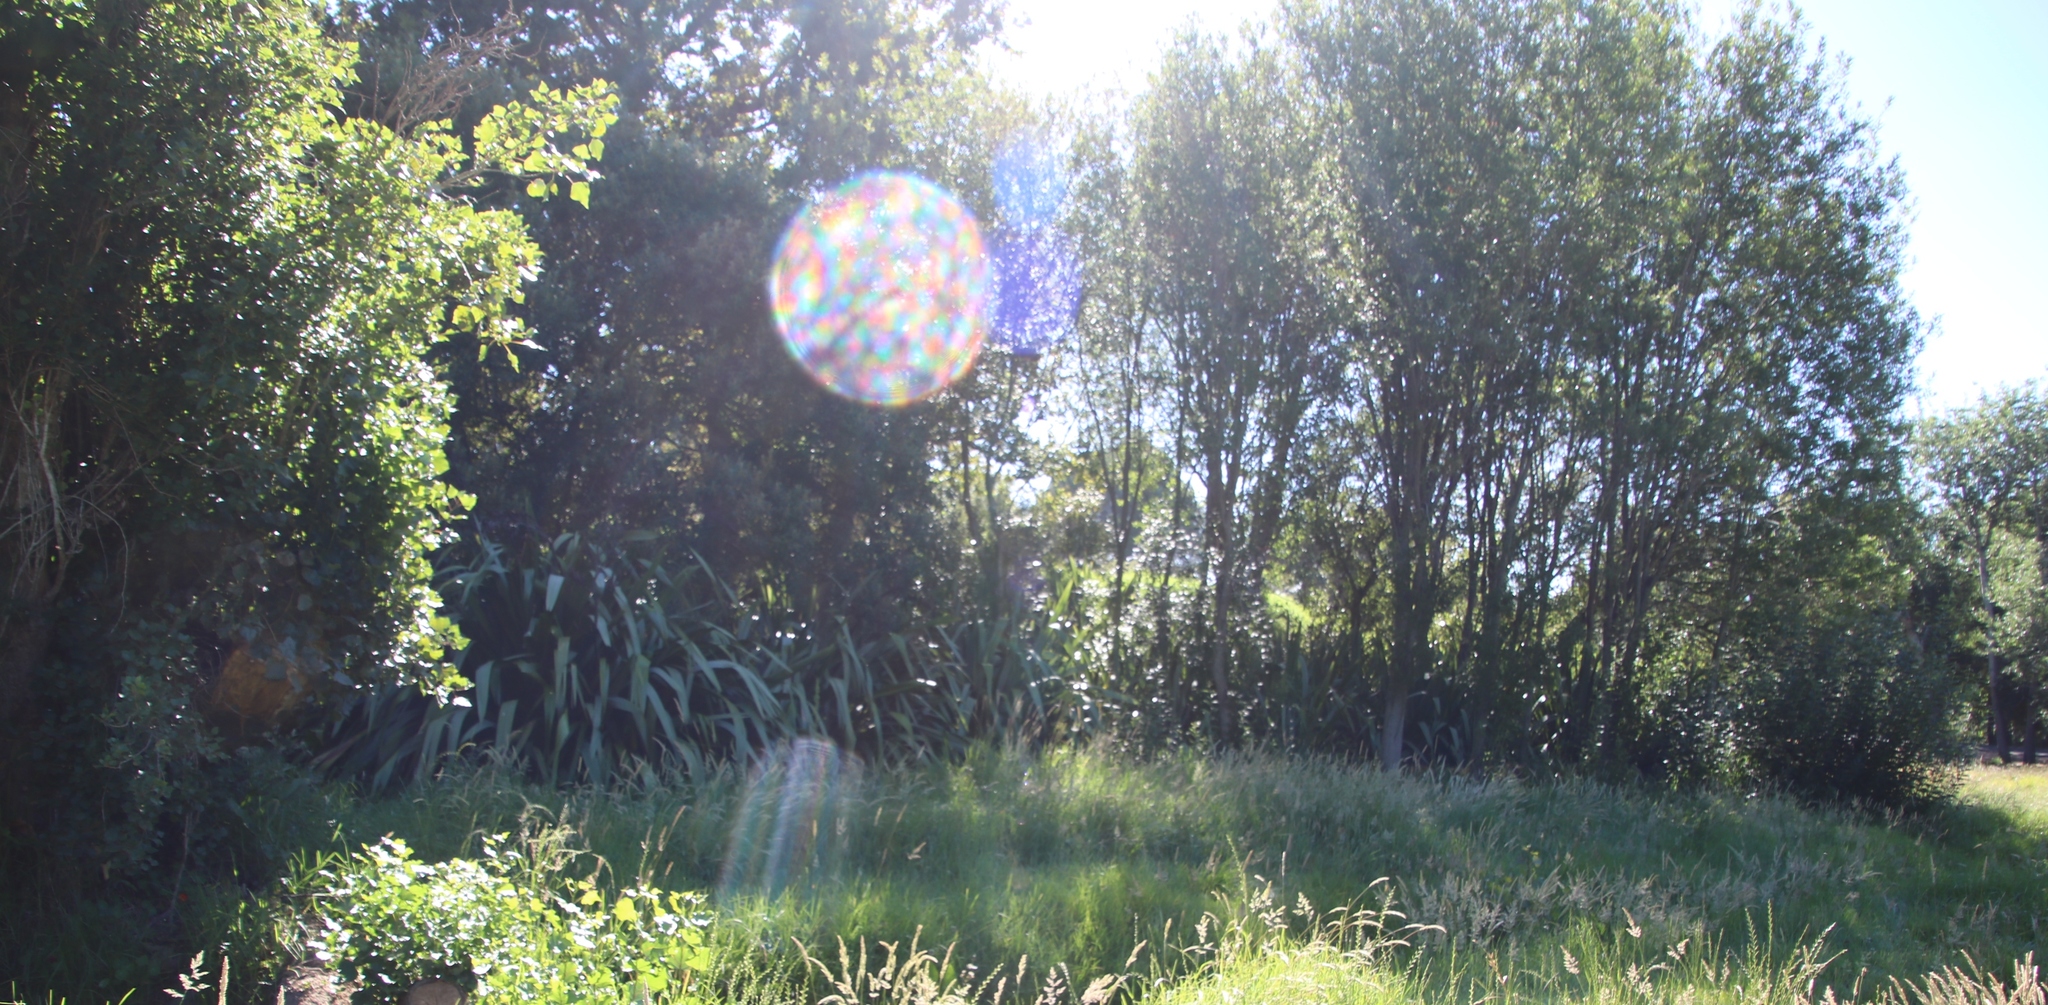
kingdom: Plantae
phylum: Tracheophyta
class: Liliopsida
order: Asparagales
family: Asphodelaceae
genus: Phormium
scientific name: Phormium tenax
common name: New zealand flax
